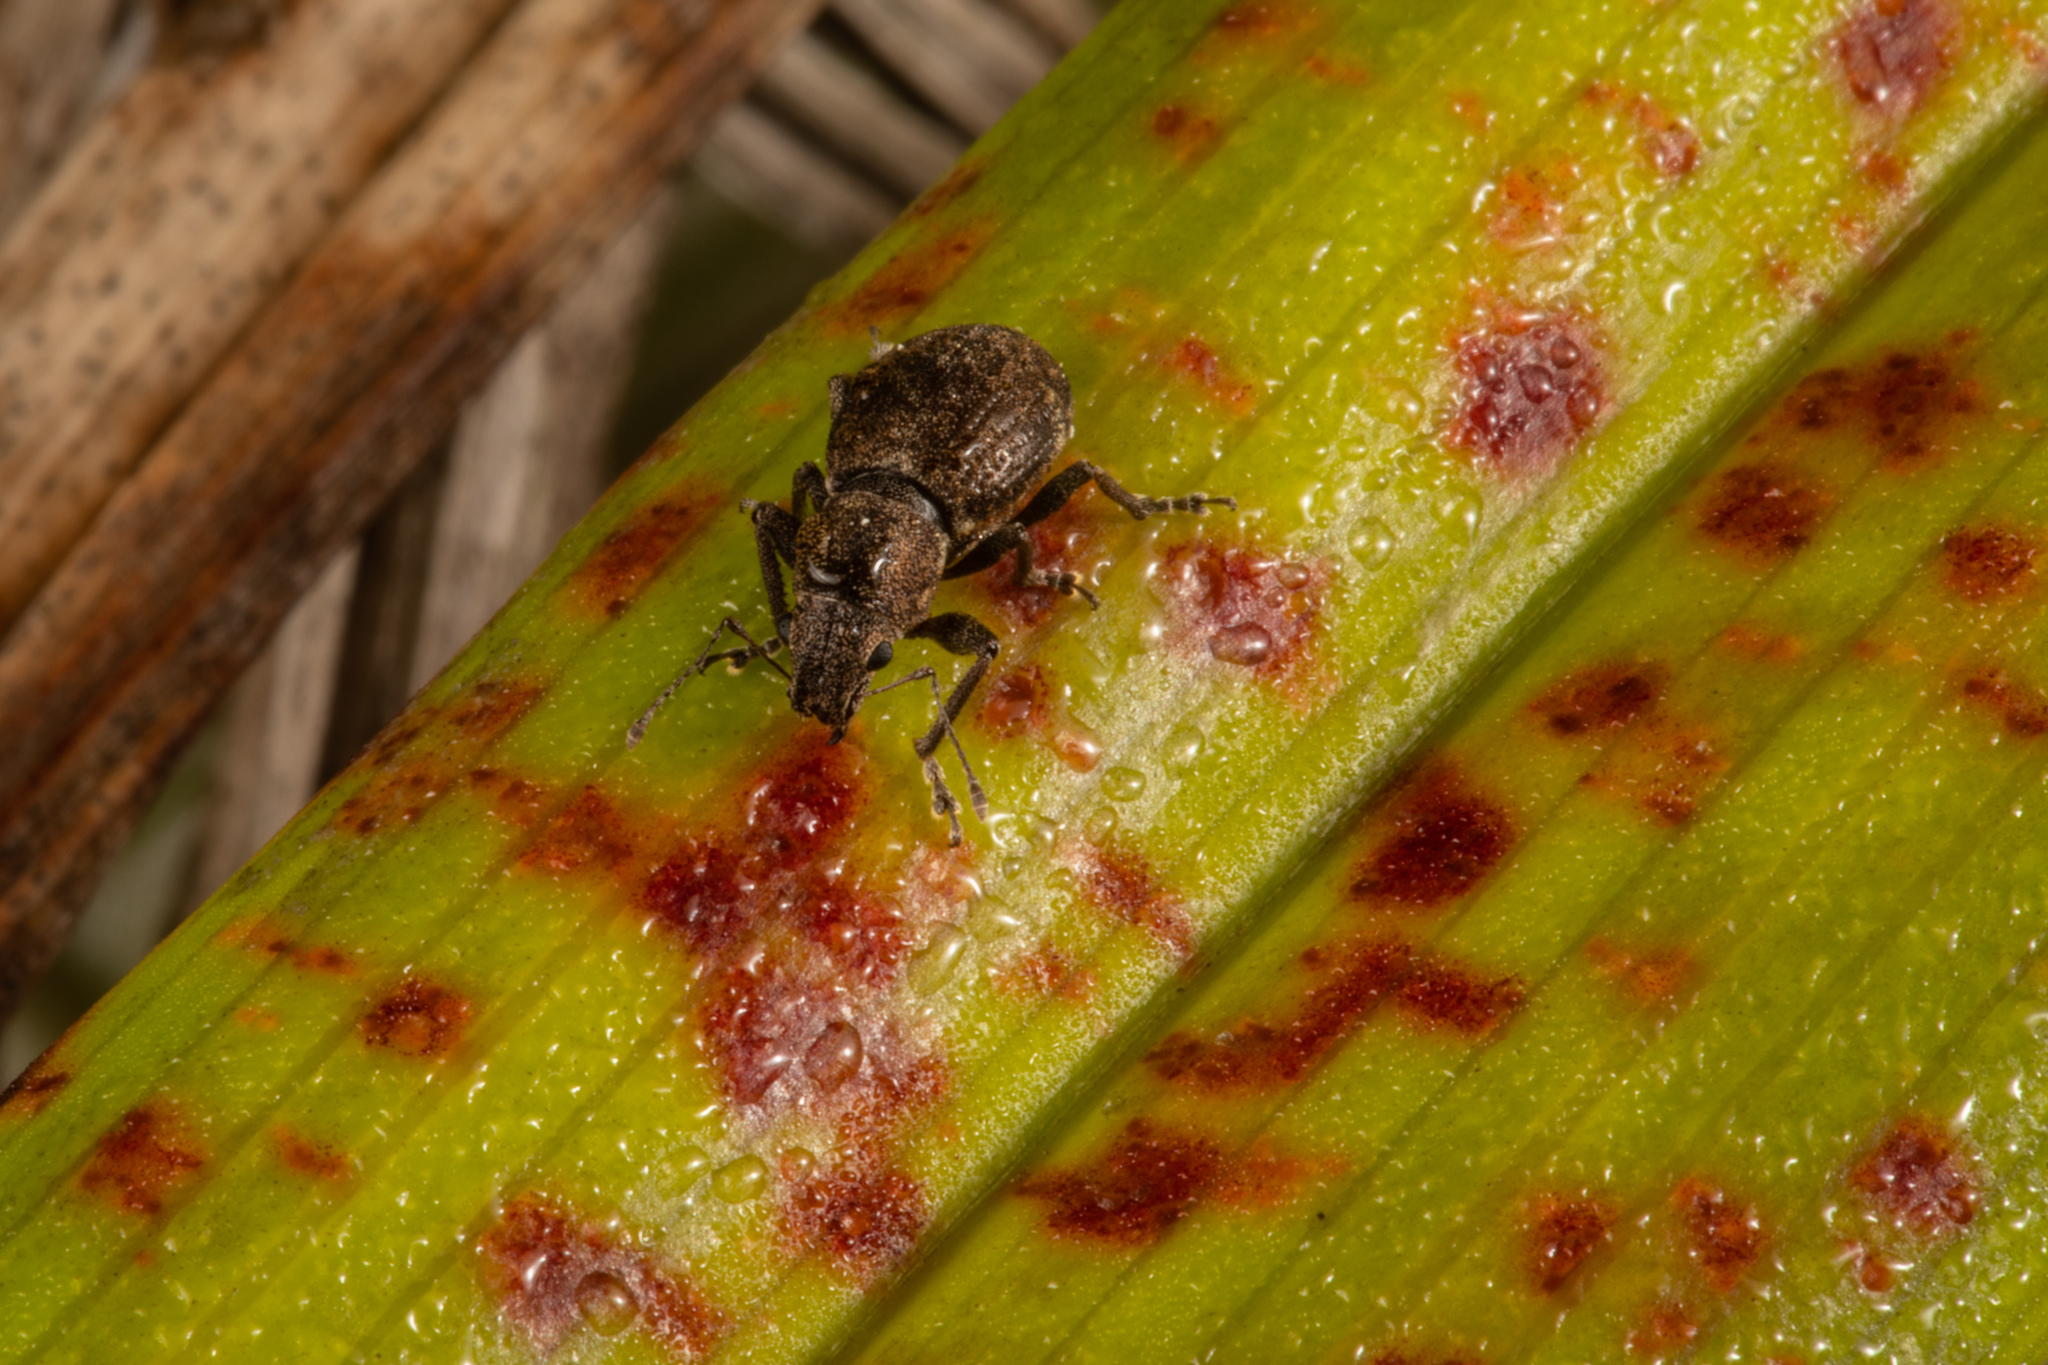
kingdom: Animalia
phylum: Arthropoda
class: Insecta
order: Coleoptera
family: Curculionidae
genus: Naupactus
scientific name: Naupactus cervinus
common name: Fuller rose beetle
